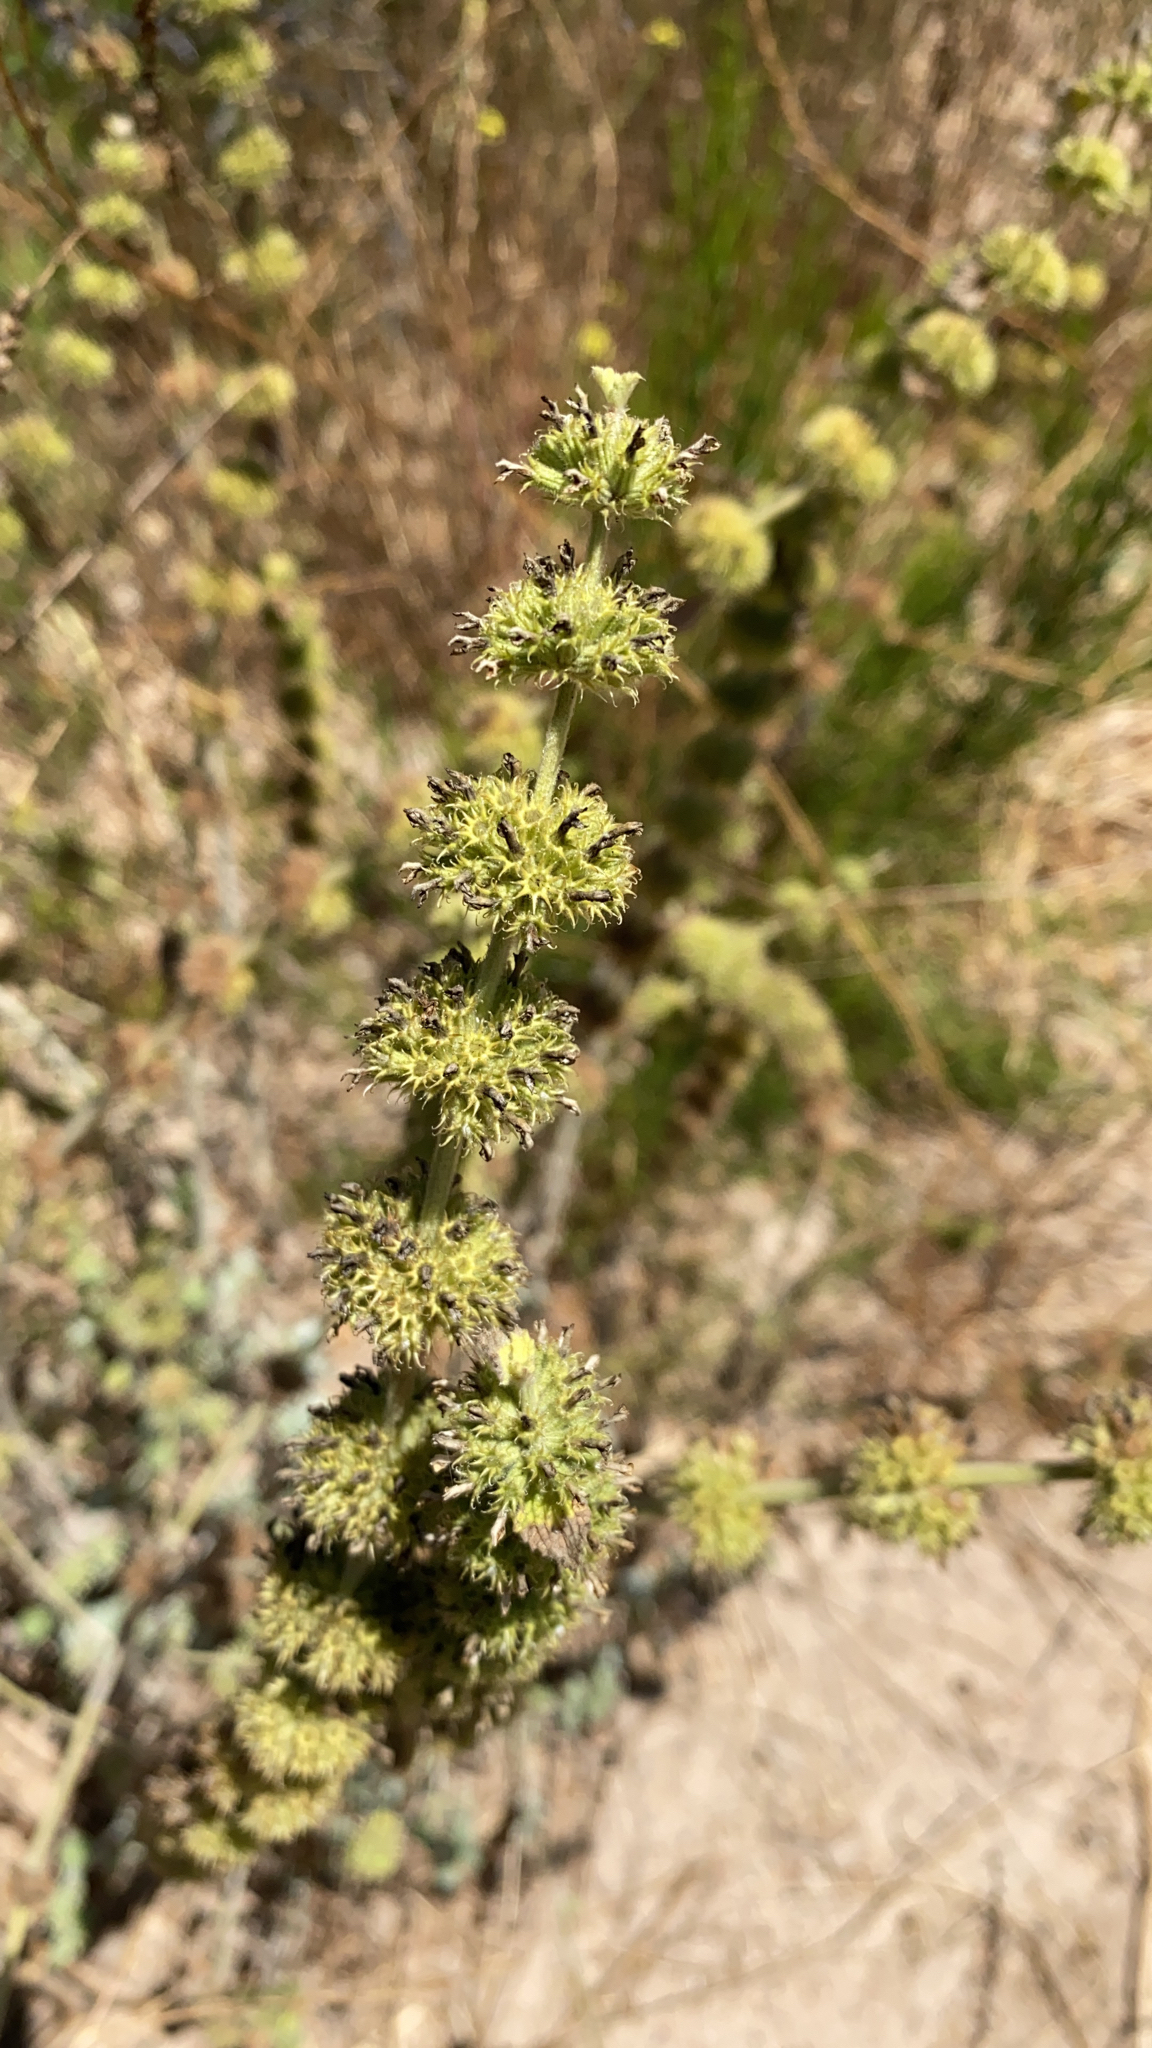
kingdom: Plantae
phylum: Tracheophyta
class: Magnoliopsida
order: Lamiales
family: Lamiaceae
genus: Marrubium
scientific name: Marrubium vulgare
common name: Horehound
